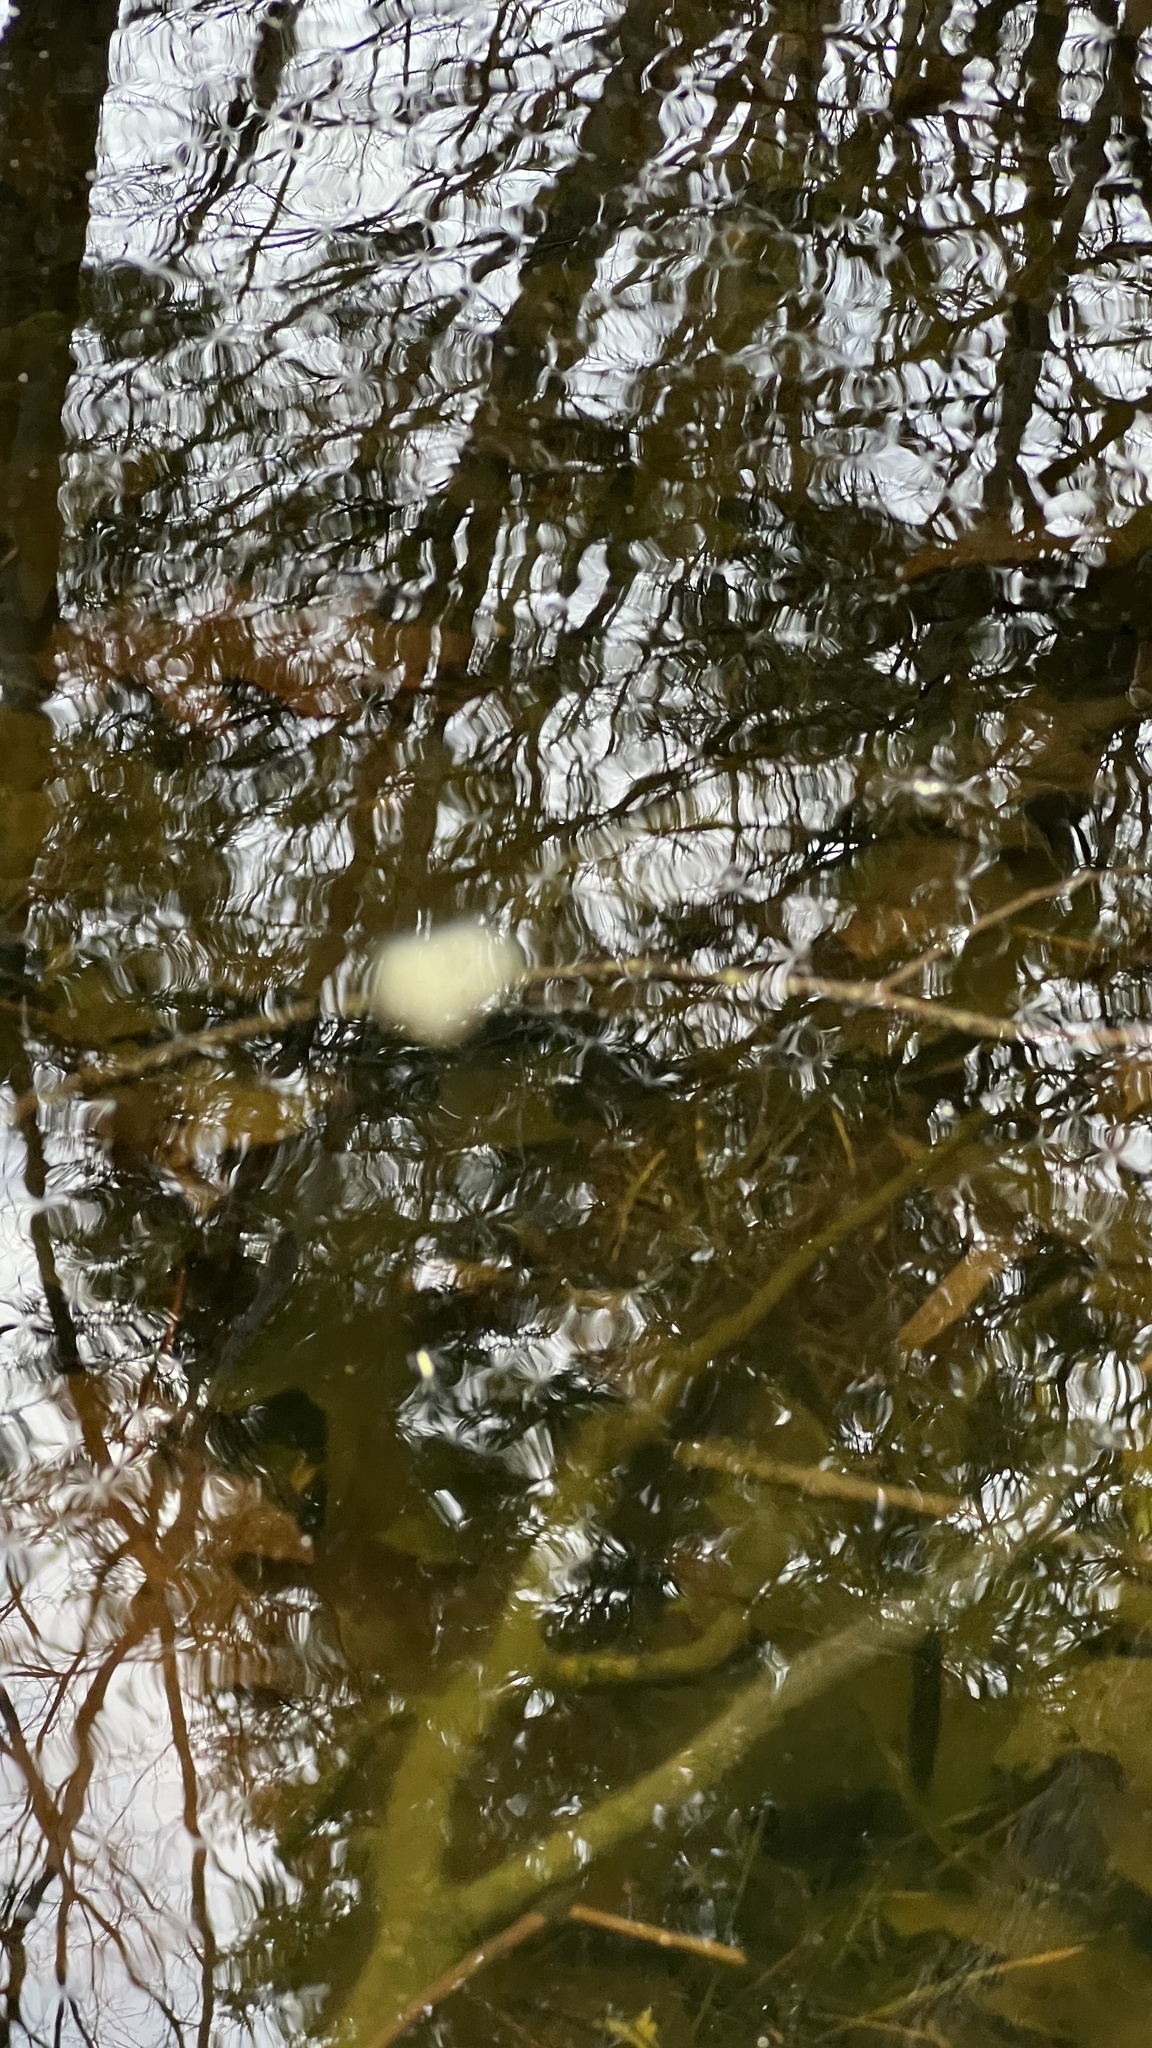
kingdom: Animalia
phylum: Chordata
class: Amphibia
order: Caudata
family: Ambystomatidae
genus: Ambystoma
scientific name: Ambystoma maculatum
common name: Spotted salamander
